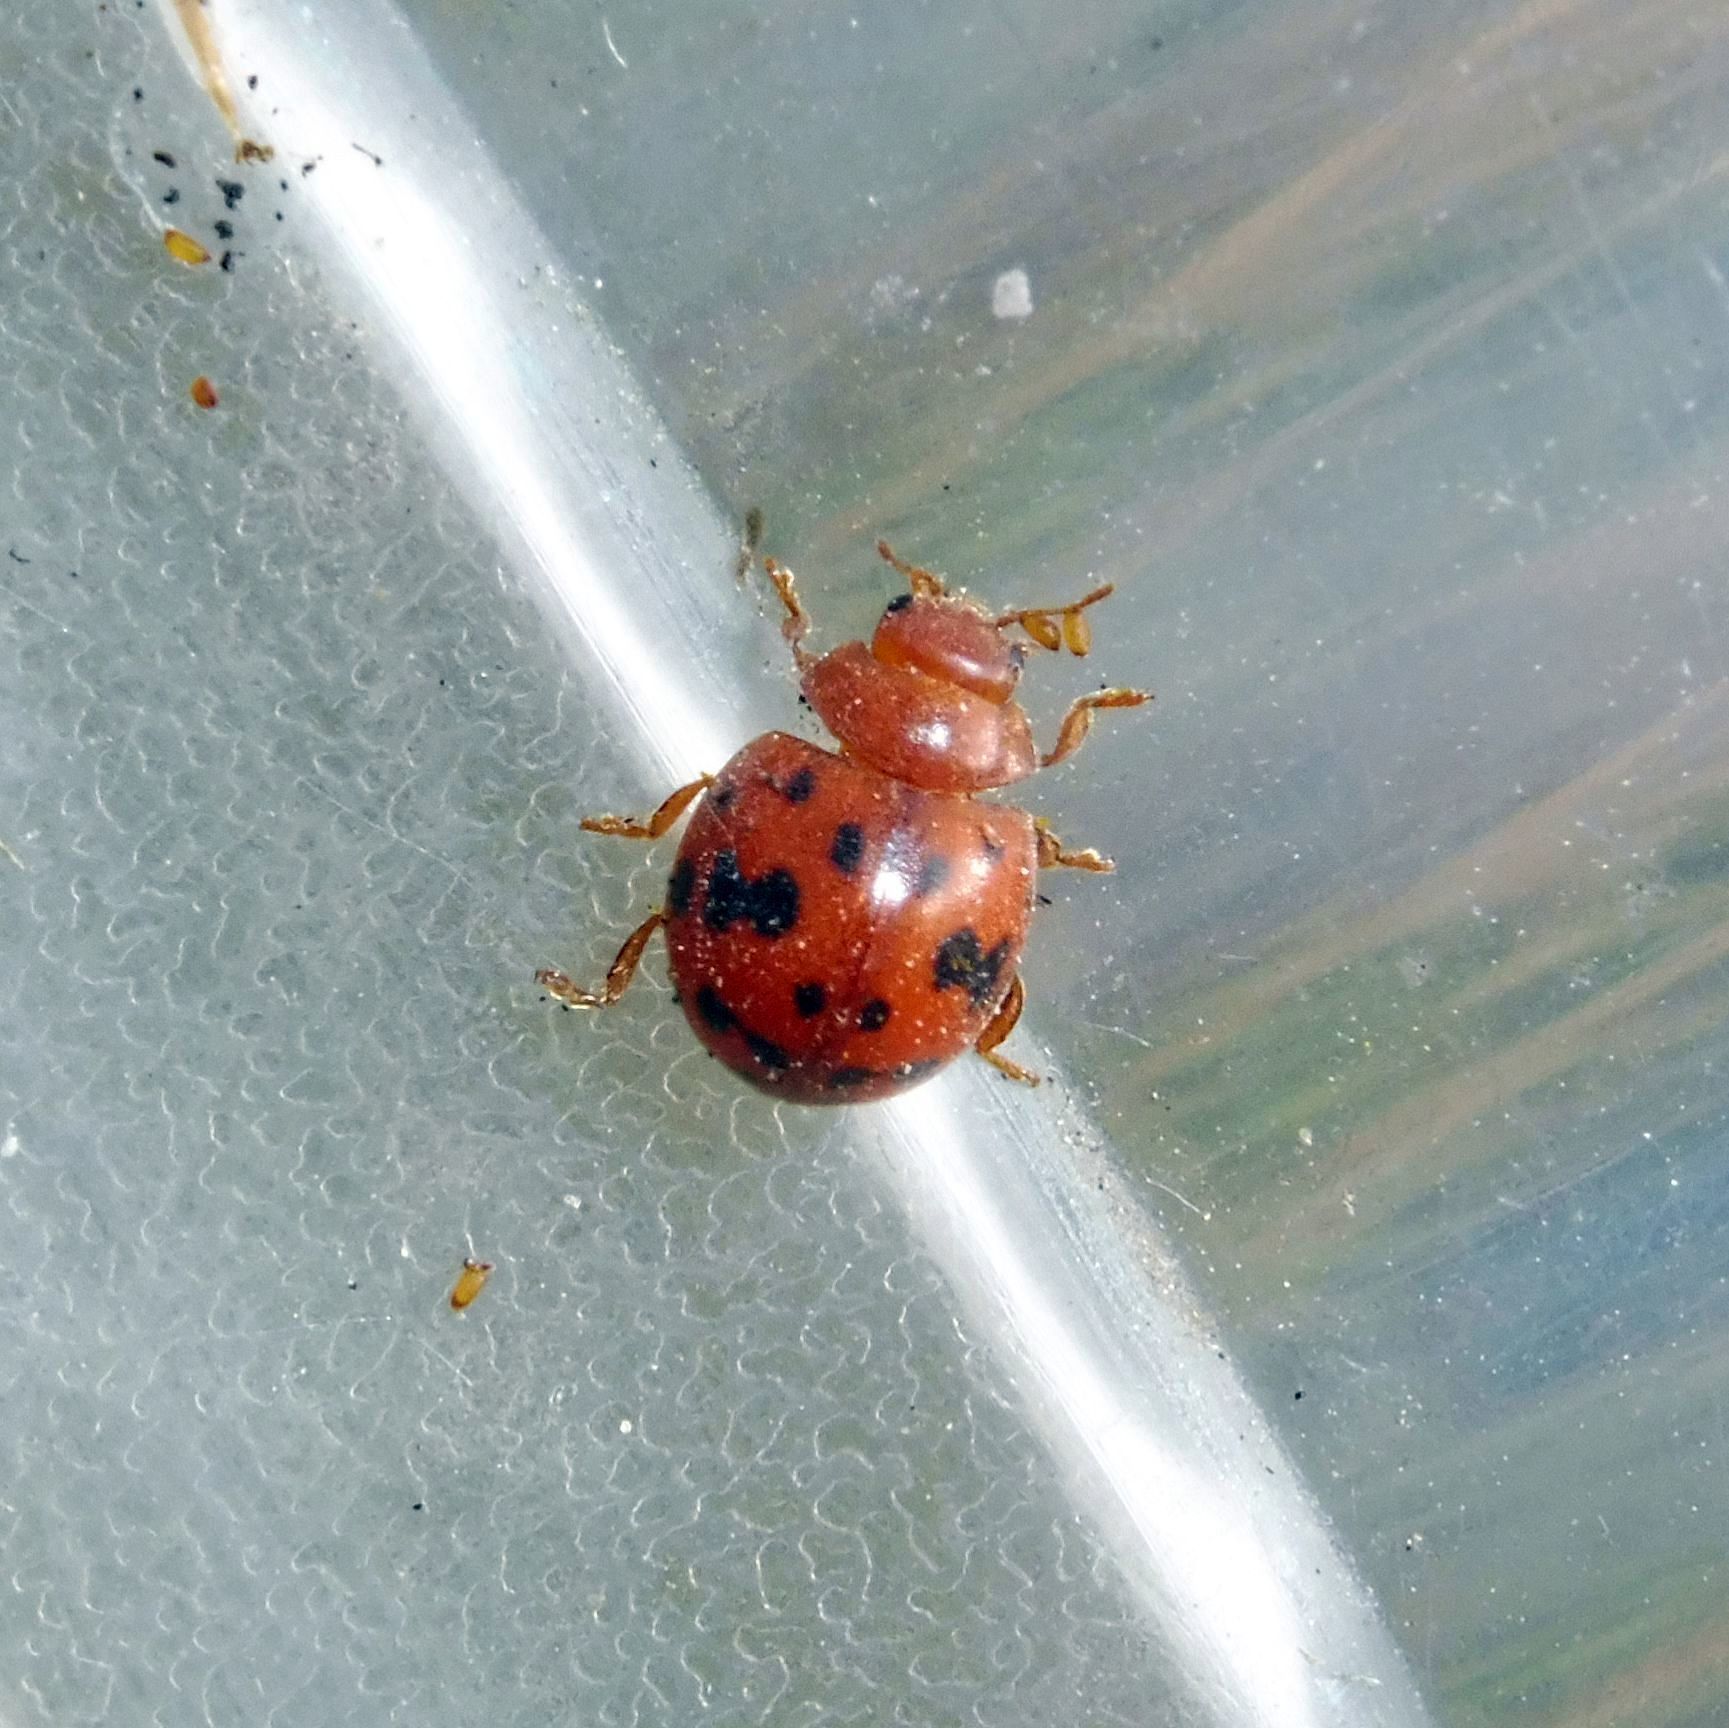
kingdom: Animalia
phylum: Arthropoda
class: Insecta
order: Coleoptera
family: Coccinellidae
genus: Subcoccinella
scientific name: Subcoccinella vigintiquatuorpunctata
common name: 24-spot ladybird
